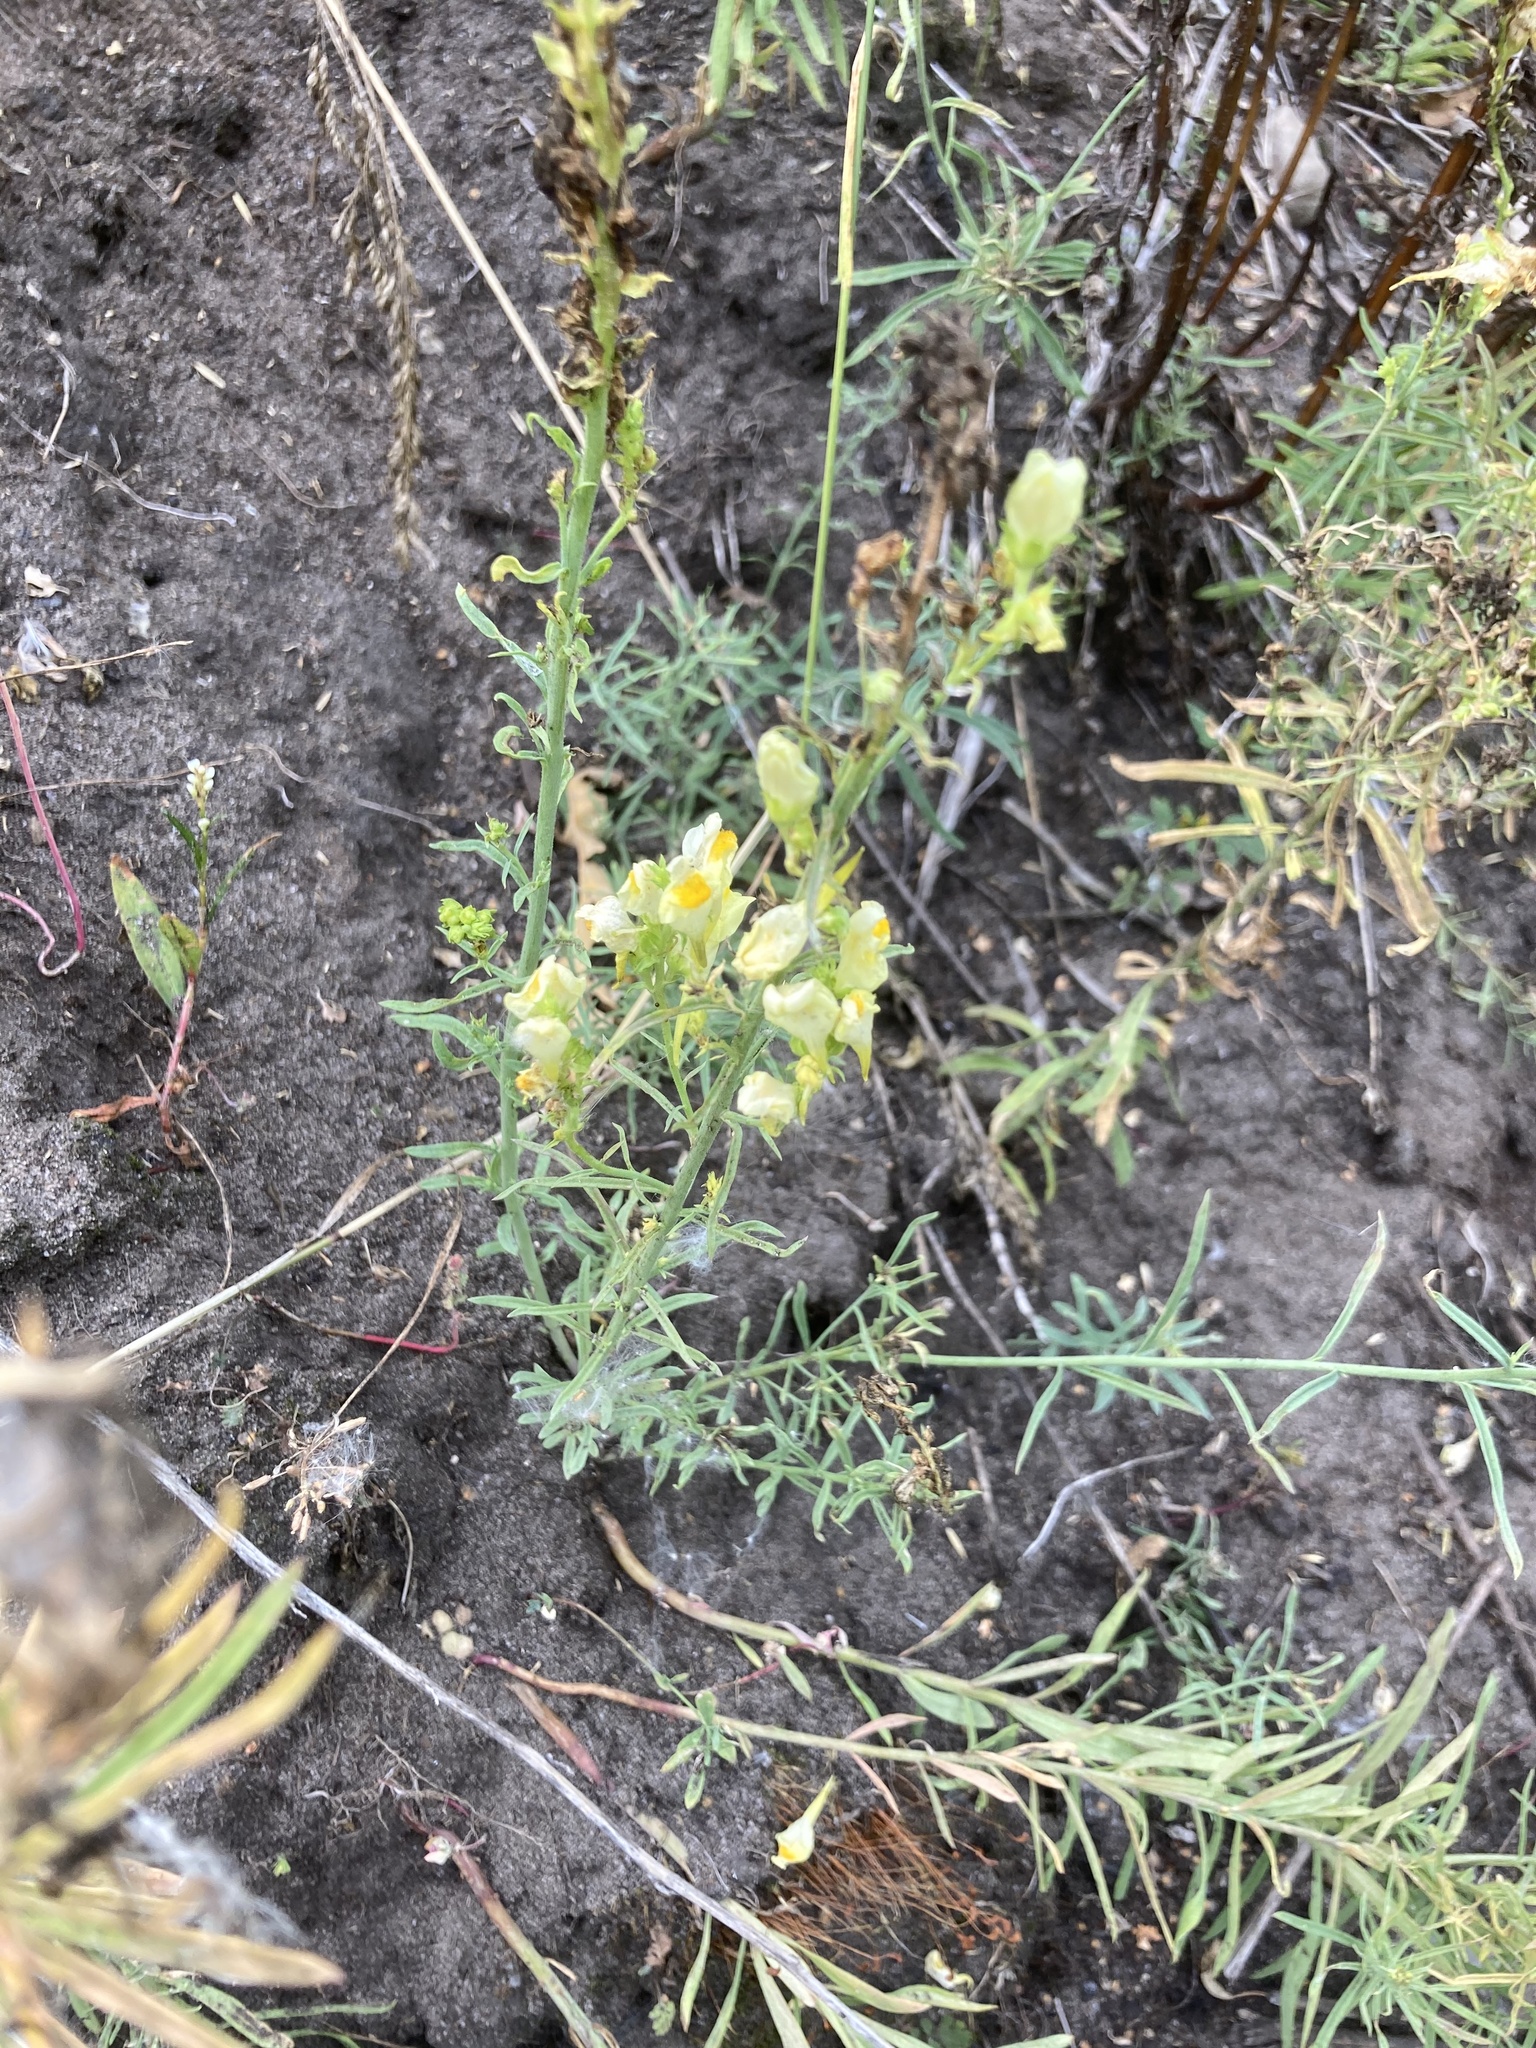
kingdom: Plantae
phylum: Tracheophyta
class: Magnoliopsida
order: Lamiales
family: Plantaginaceae
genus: Linaria
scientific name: Linaria vulgaris
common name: Butter and eggs
